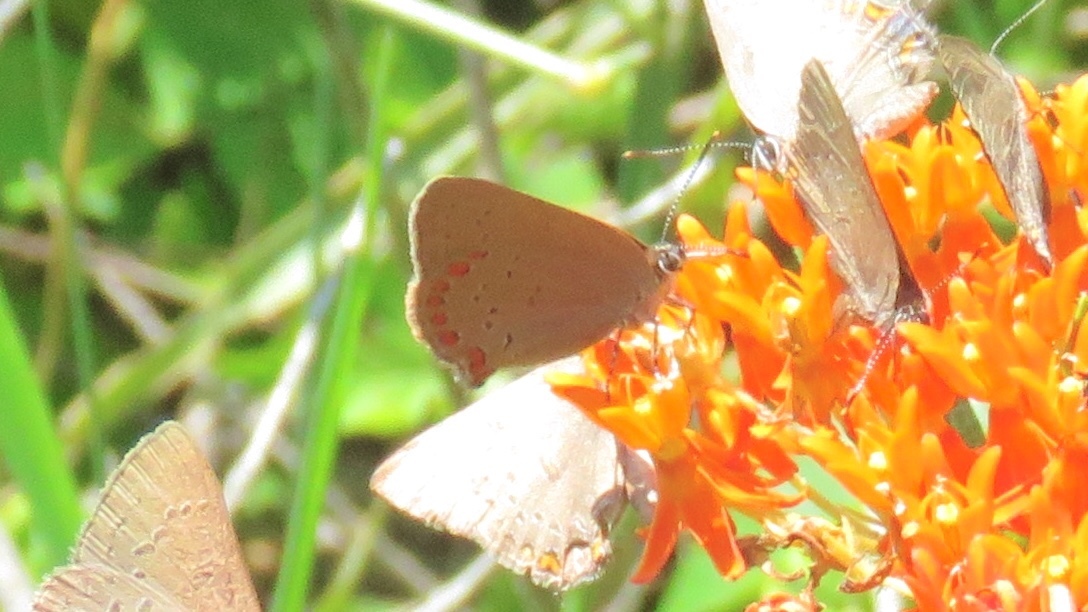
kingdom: Animalia
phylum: Arthropoda
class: Insecta
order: Lepidoptera
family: Lycaenidae
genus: Harkenclenus
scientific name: Harkenclenus titus
